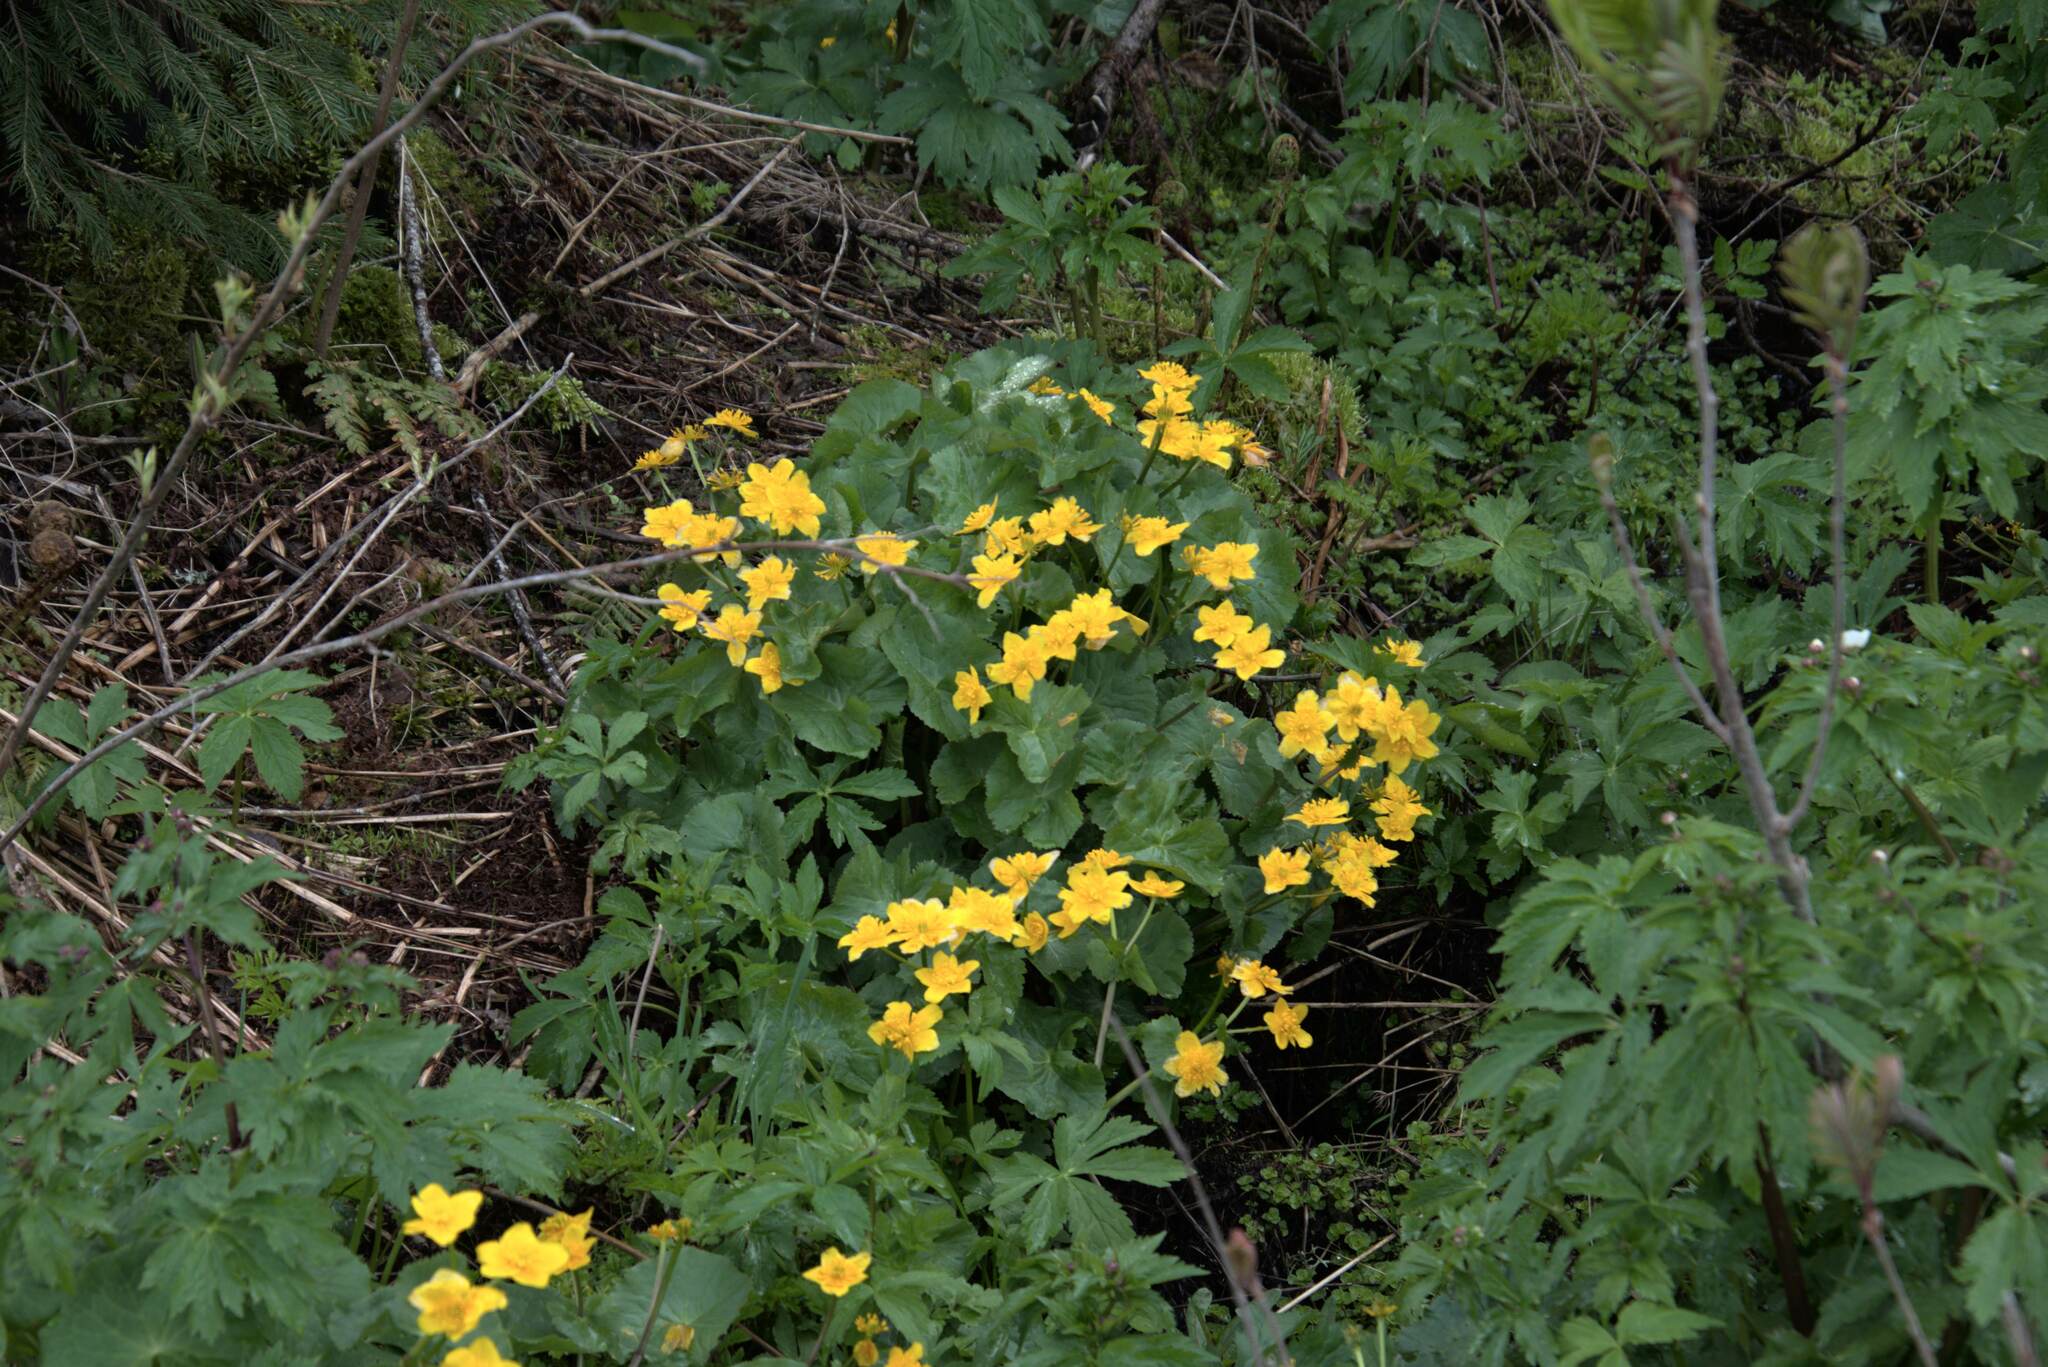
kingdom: Plantae
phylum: Tracheophyta
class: Magnoliopsida
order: Ranunculales
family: Ranunculaceae
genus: Caltha
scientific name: Caltha palustris
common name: Marsh marigold
